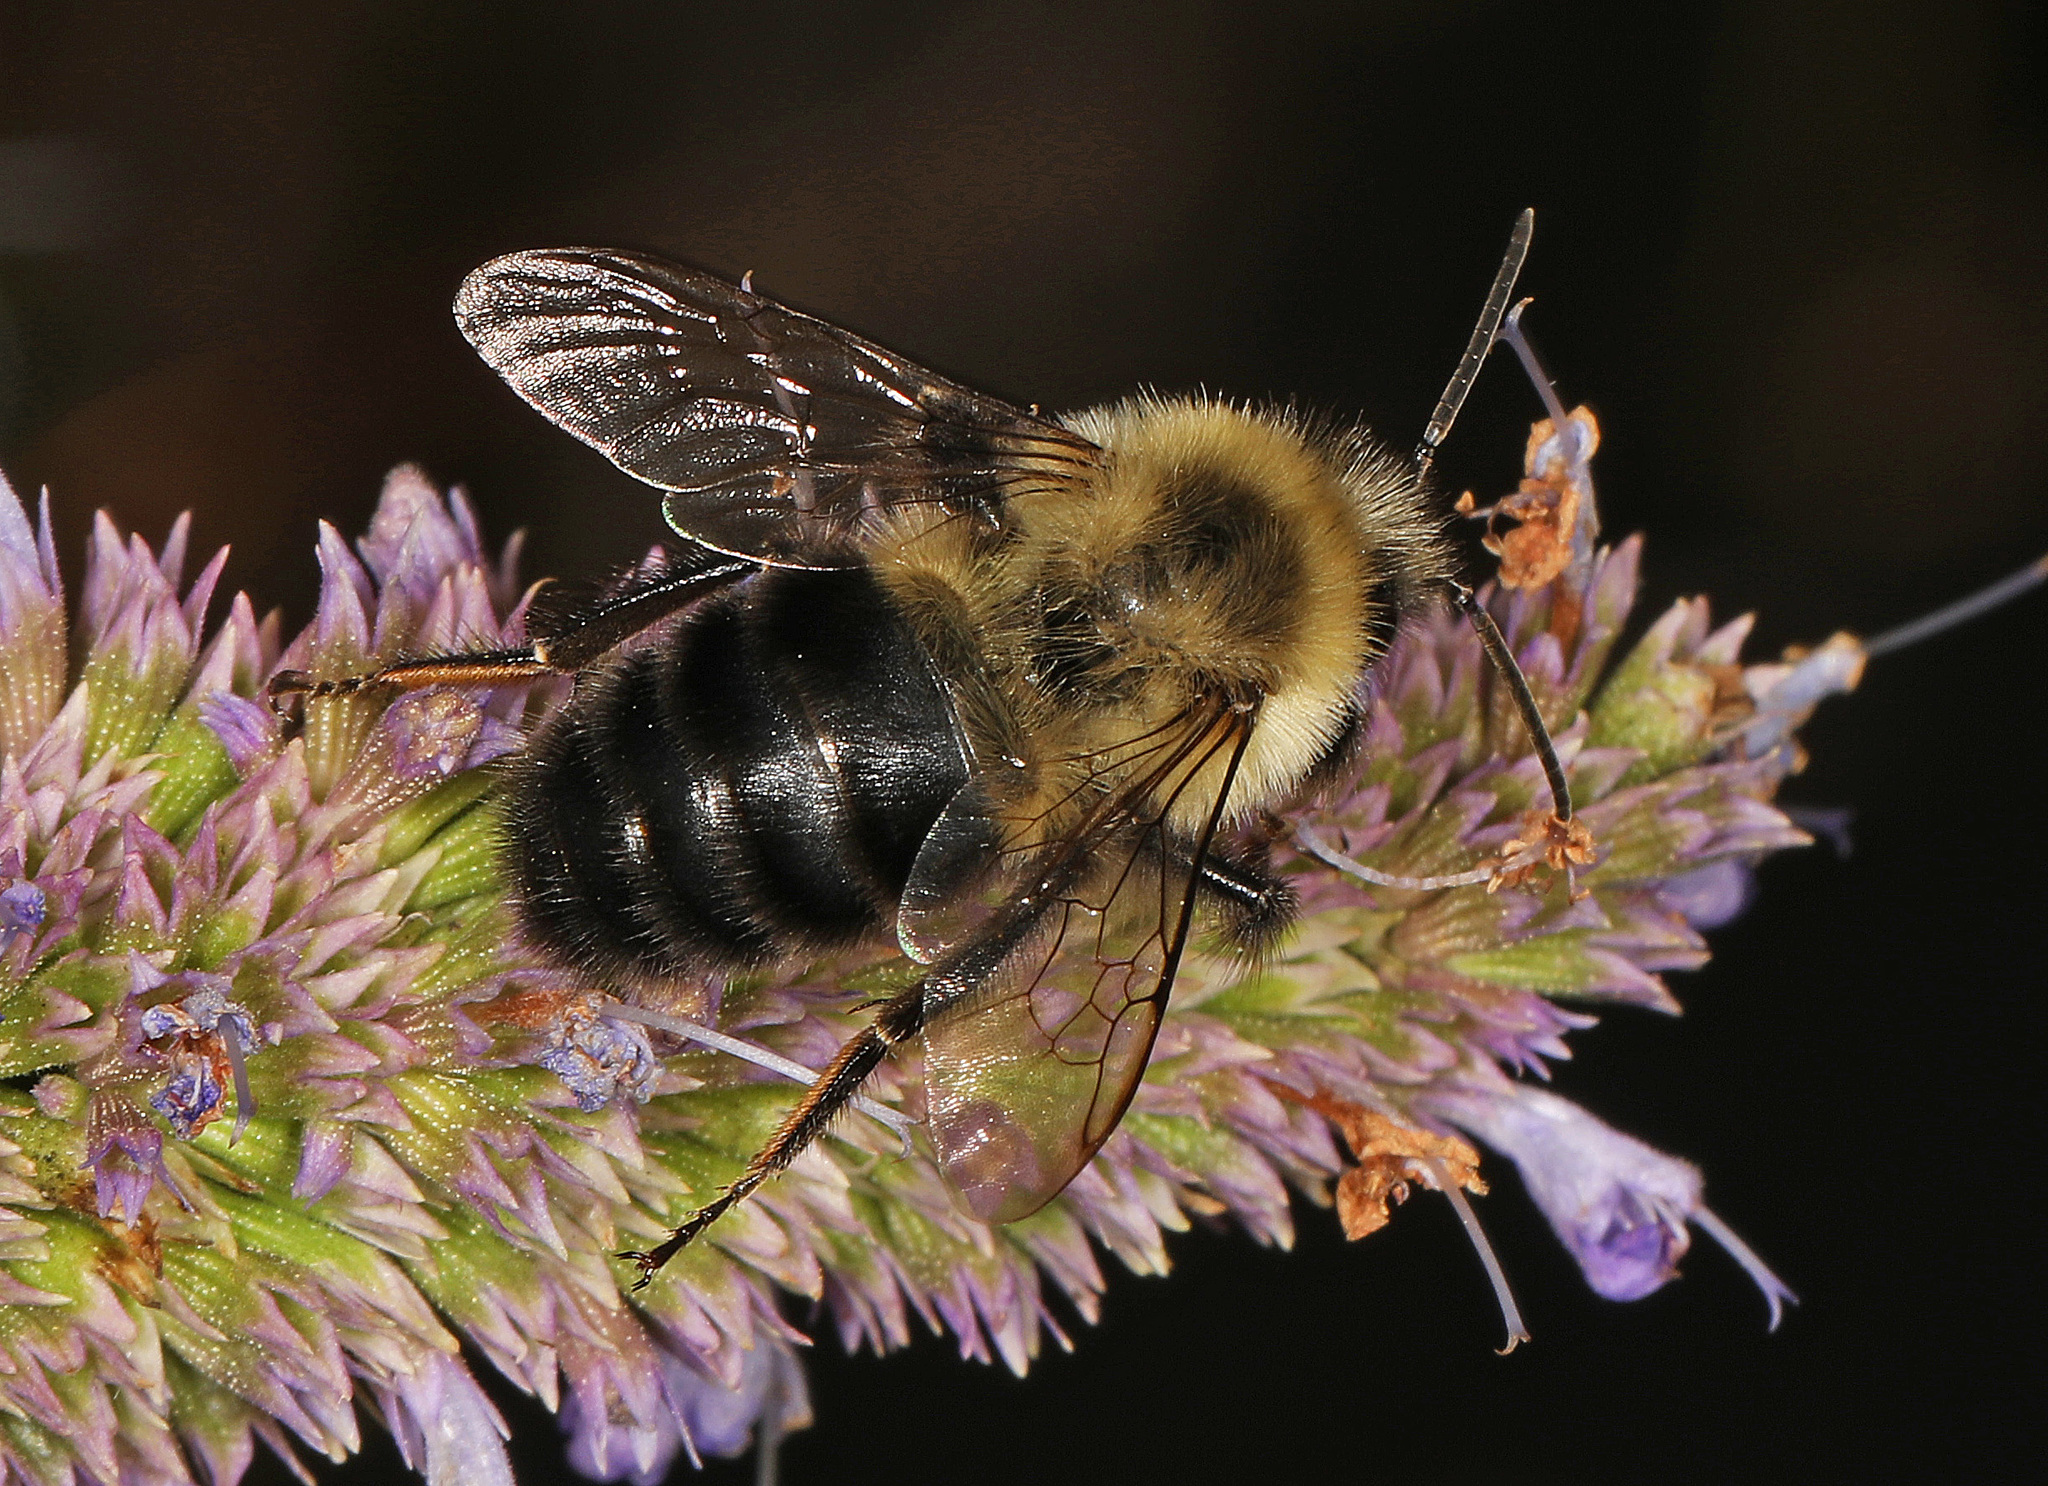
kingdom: Animalia
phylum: Arthropoda
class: Insecta
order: Hymenoptera
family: Apidae
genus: Bombus
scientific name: Bombus impatiens
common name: Common eastern bumble bee
